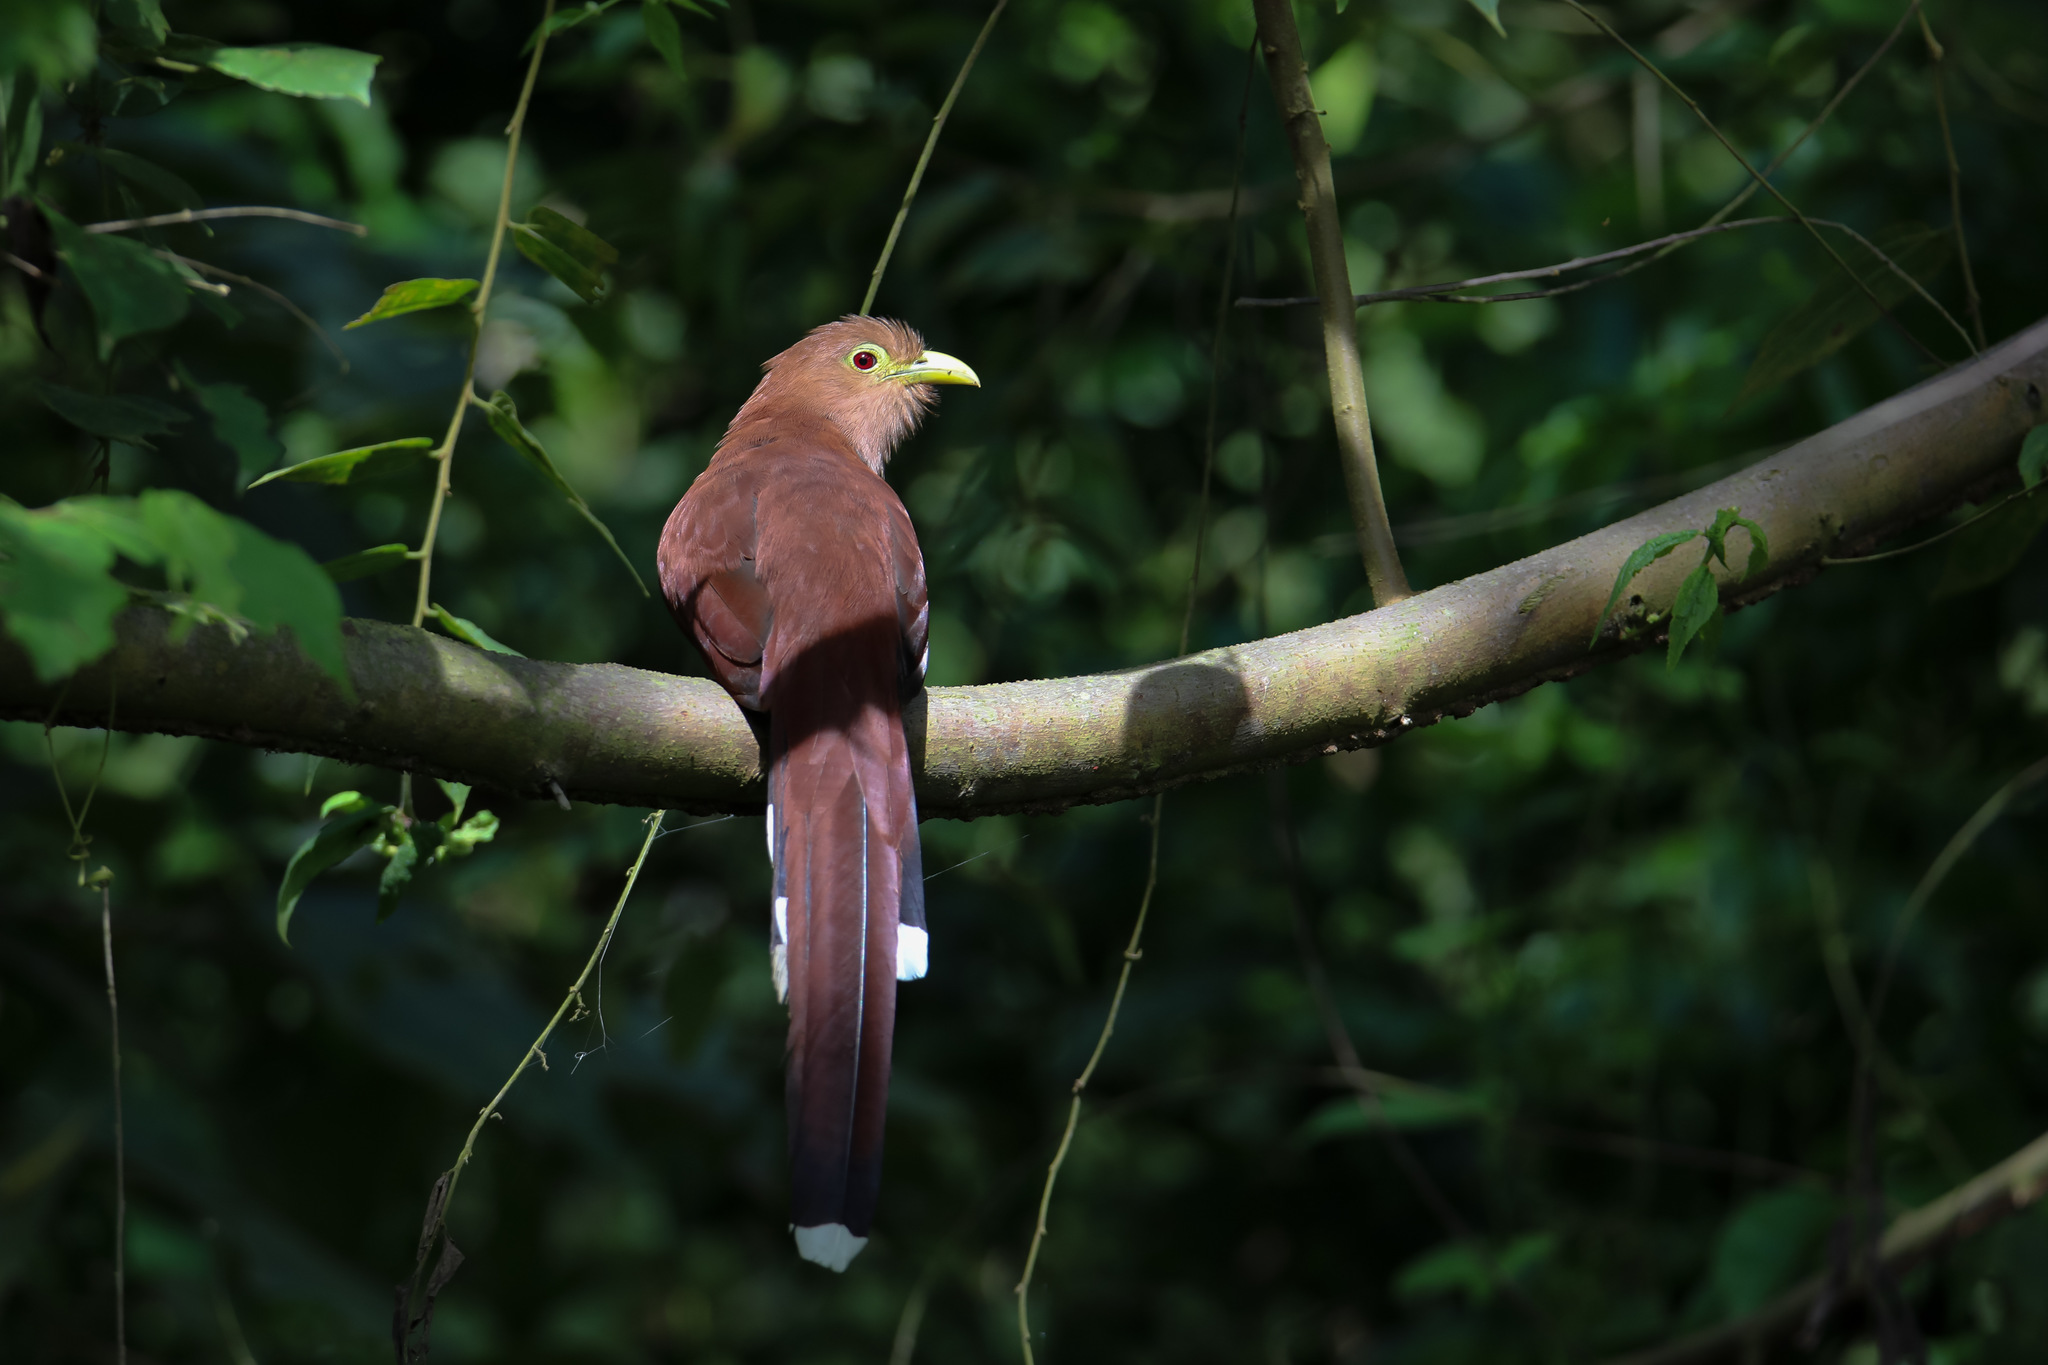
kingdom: Animalia
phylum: Chordata
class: Aves
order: Cuculiformes
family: Cuculidae
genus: Piaya
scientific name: Piaya cayana
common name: Squirrel cuckoo
